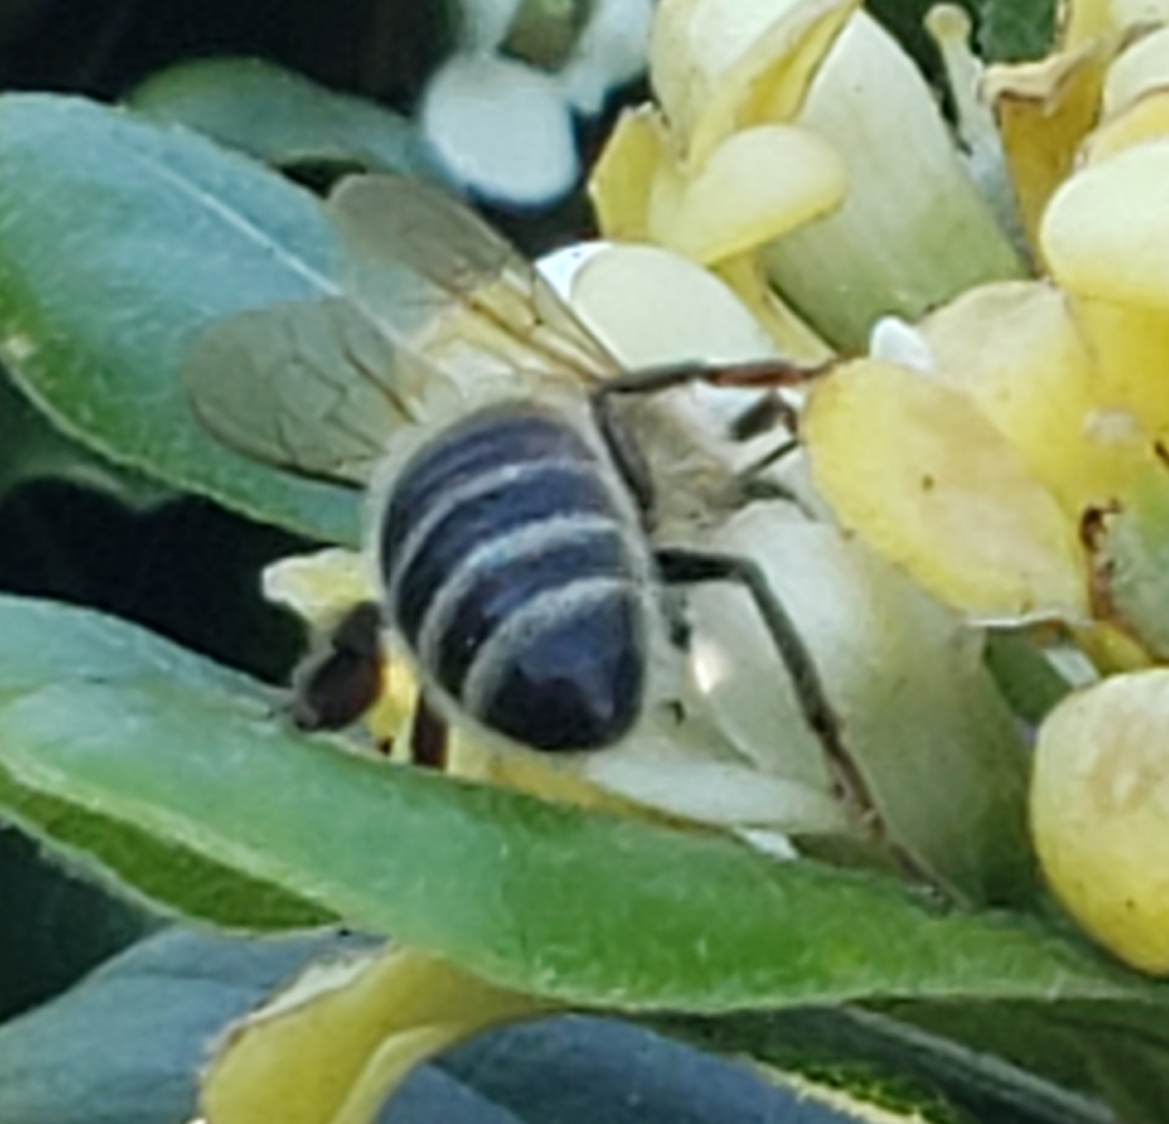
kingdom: Animalia
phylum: Arthropoda
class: Insecta
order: Hymenoptera
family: Apidae
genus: Apis
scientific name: Apis mellifera
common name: Honey bee
